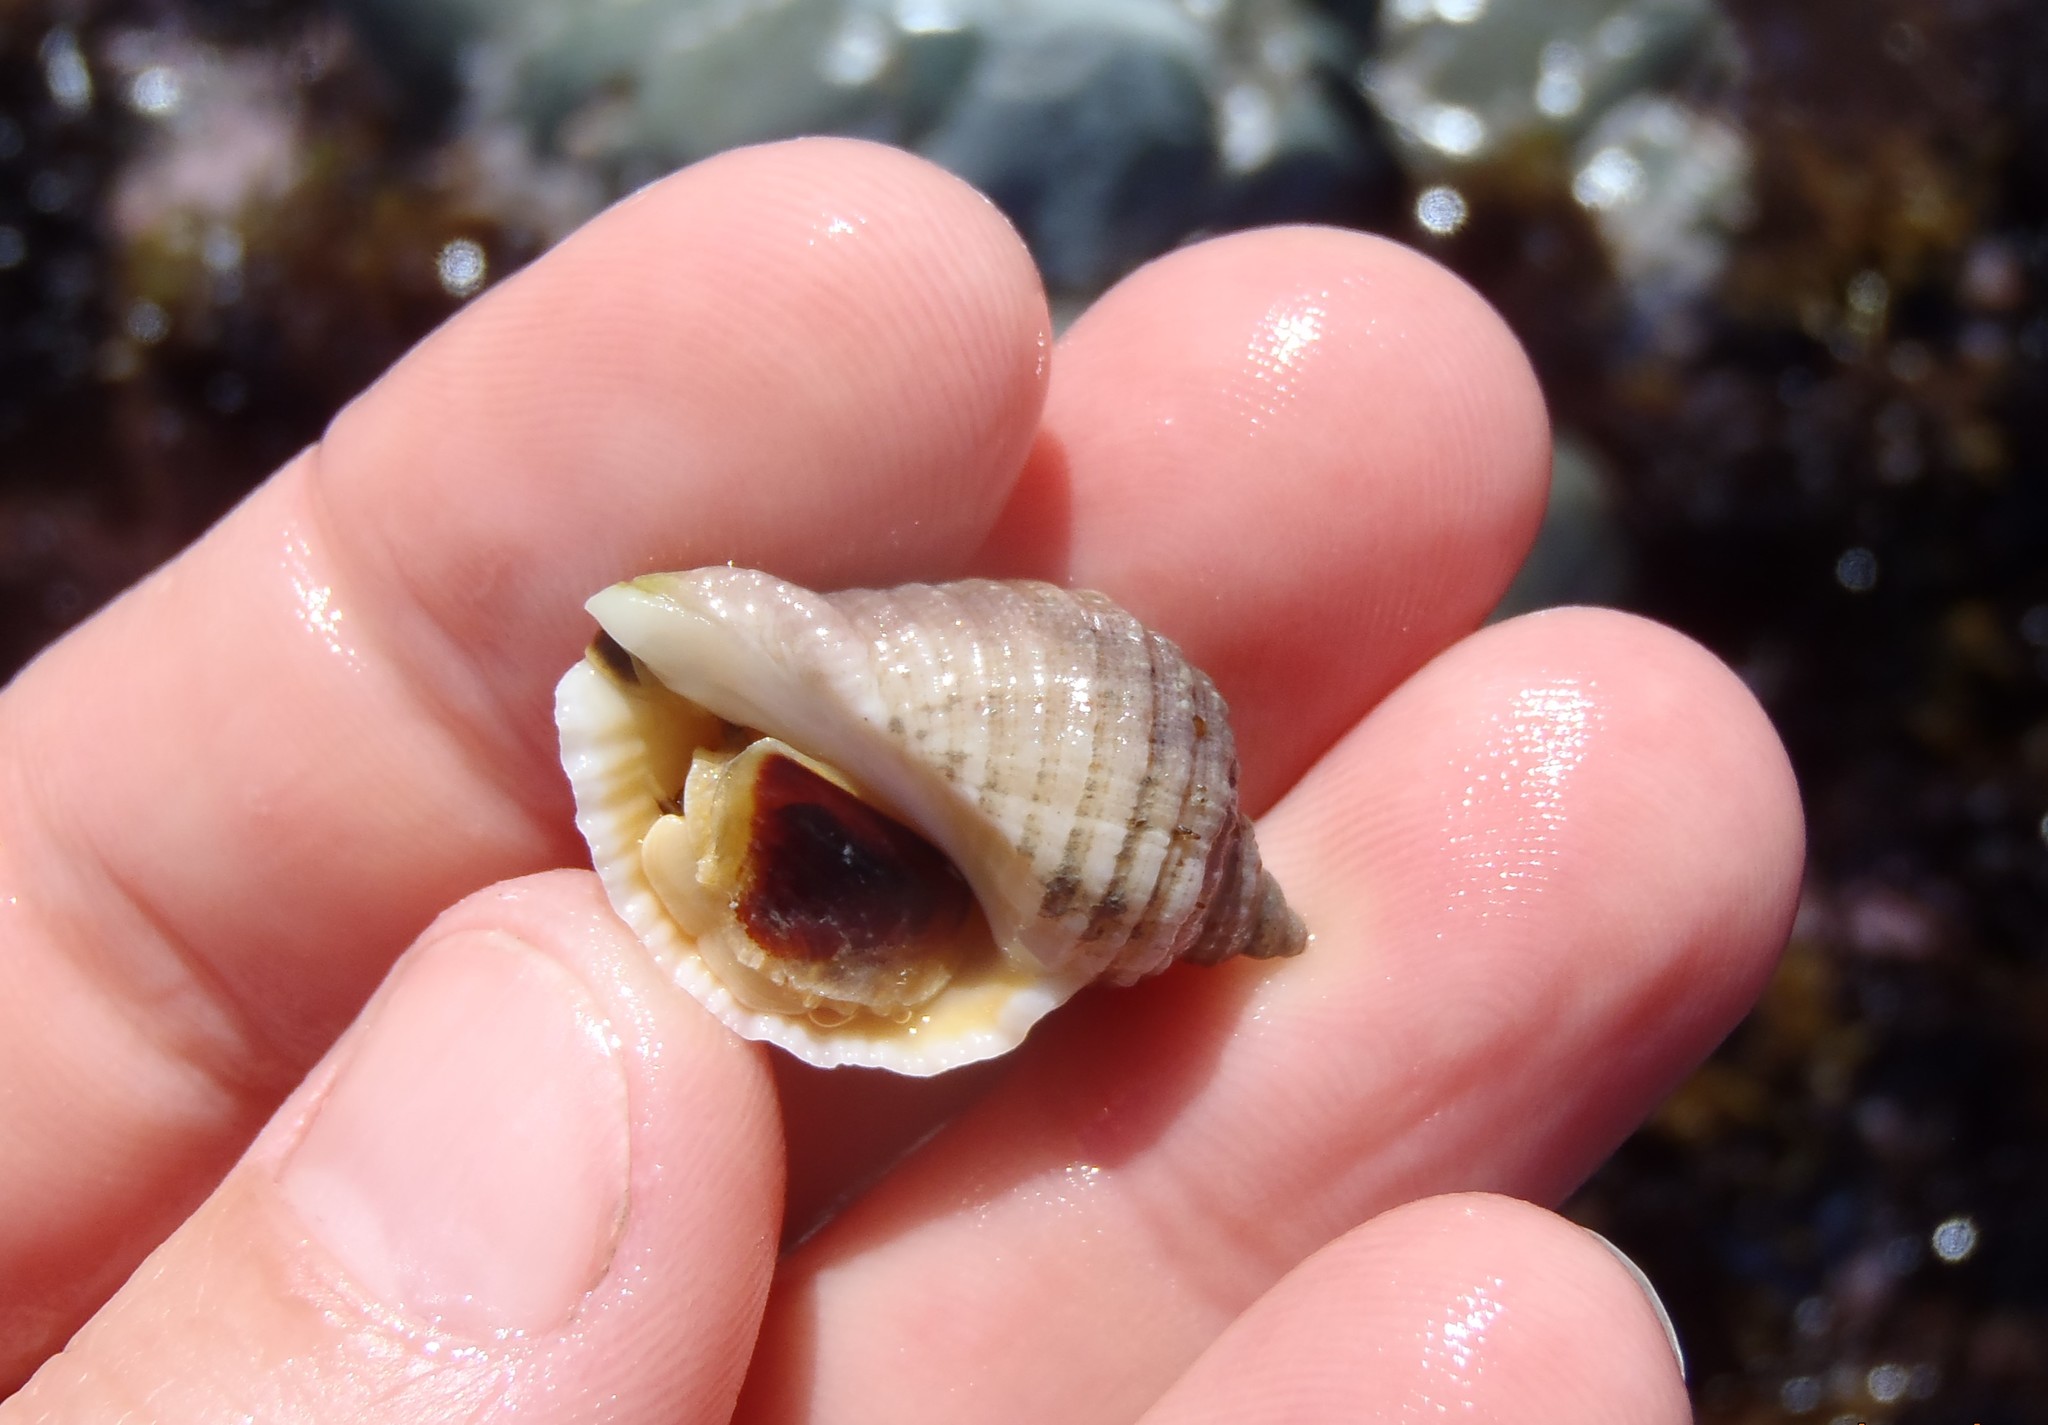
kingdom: Animalia
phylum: Mollusca
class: Gastropoda
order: Neogastropoda
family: Muricidae
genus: Dicathais
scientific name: Dicathais orbita
